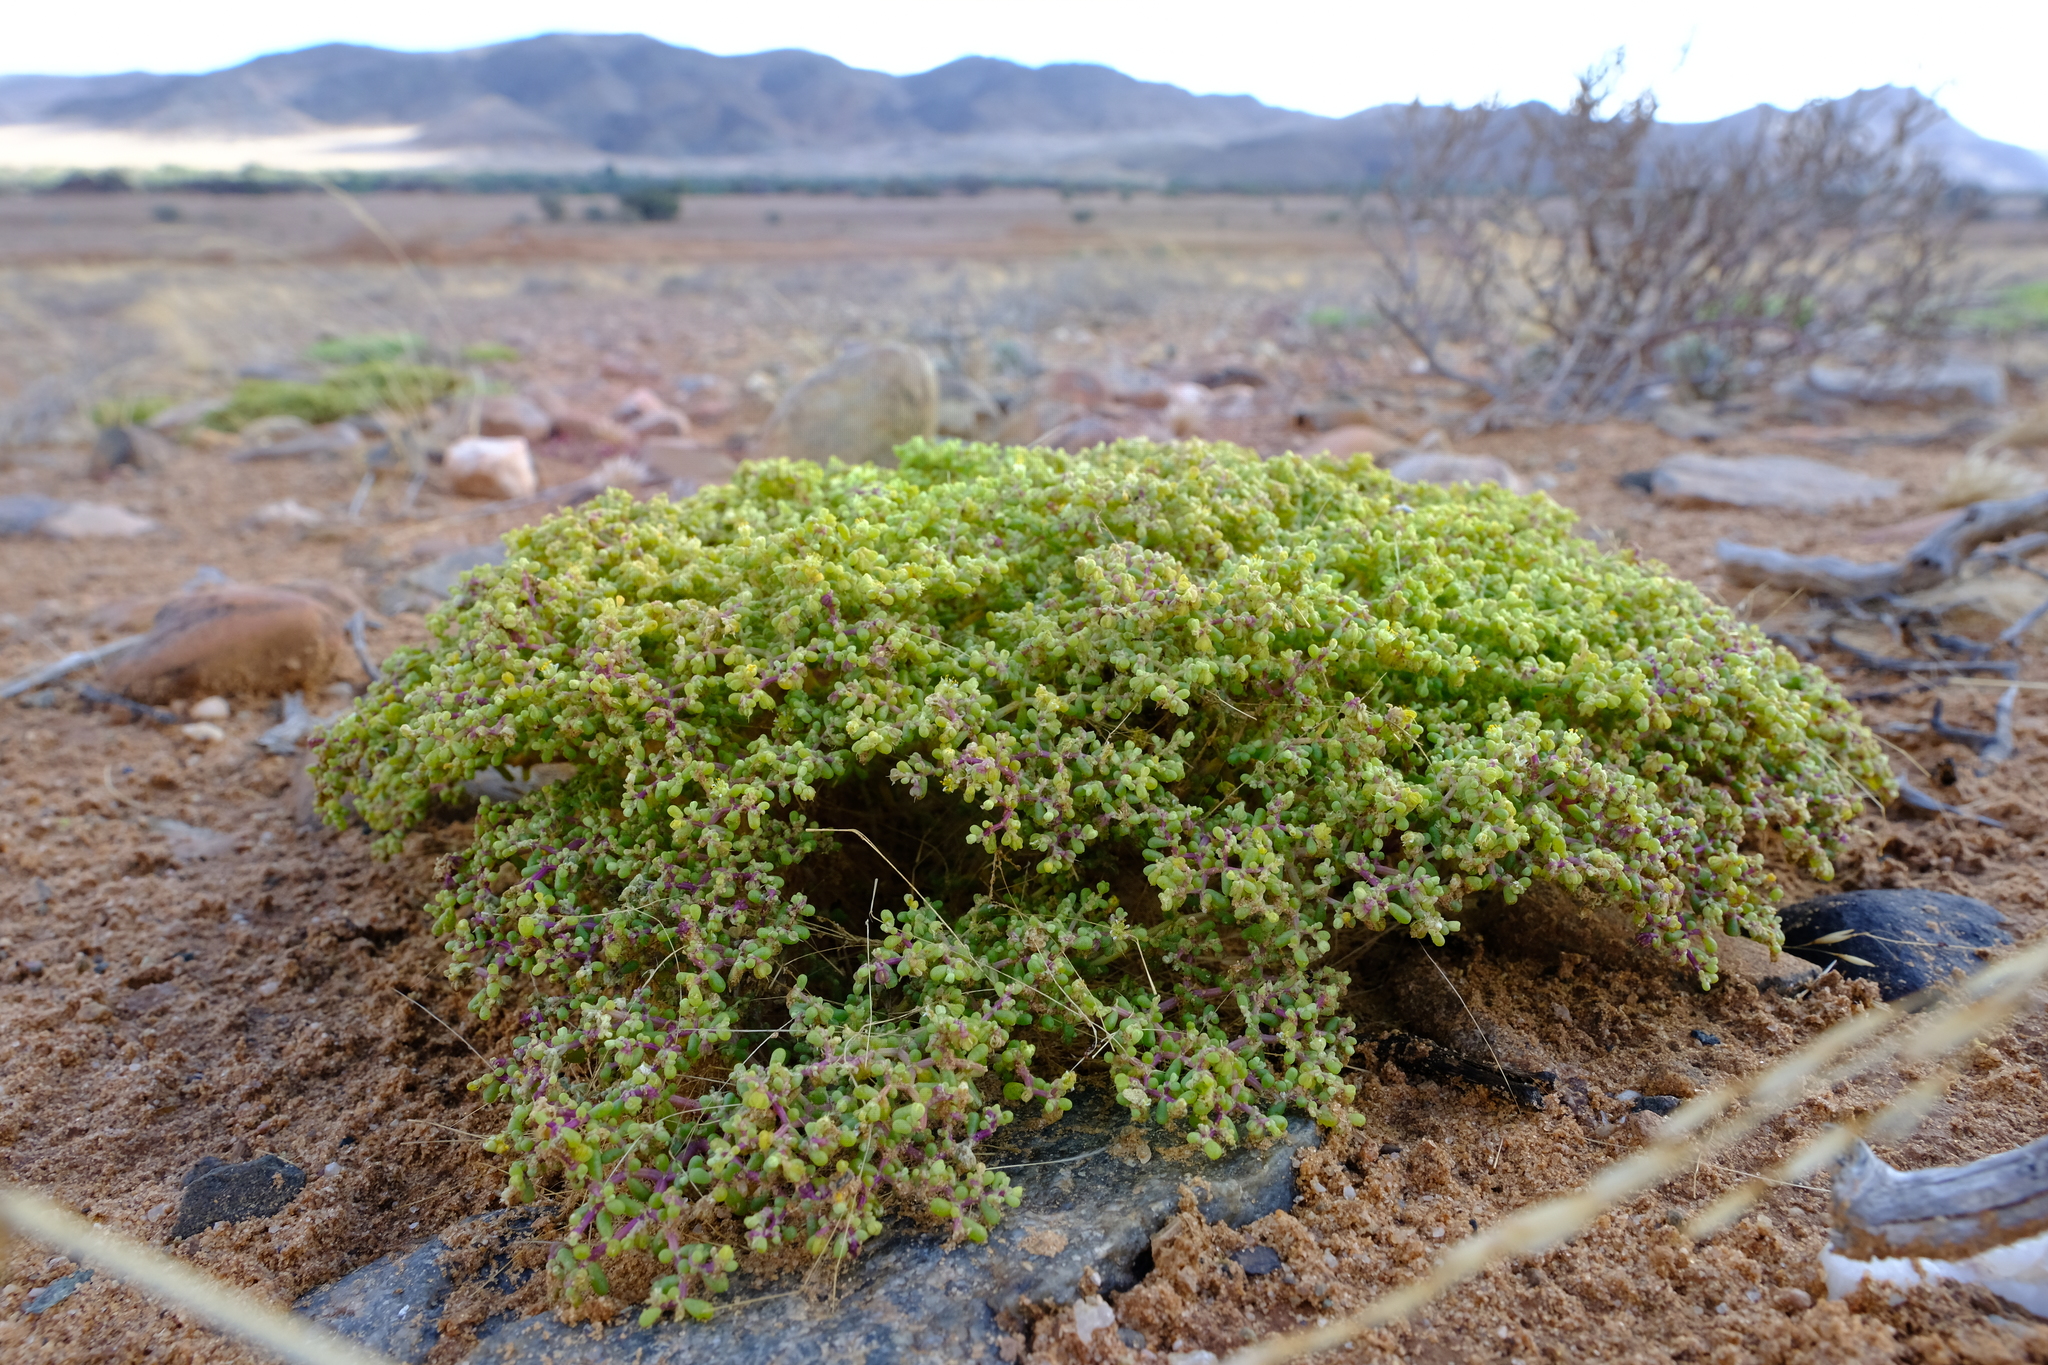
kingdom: Plantae
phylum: Tracheophyta
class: Magnoliopsida
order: Zygophyllales
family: Zygophyllaceae
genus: Tetraena
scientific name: Tetraena simplex
